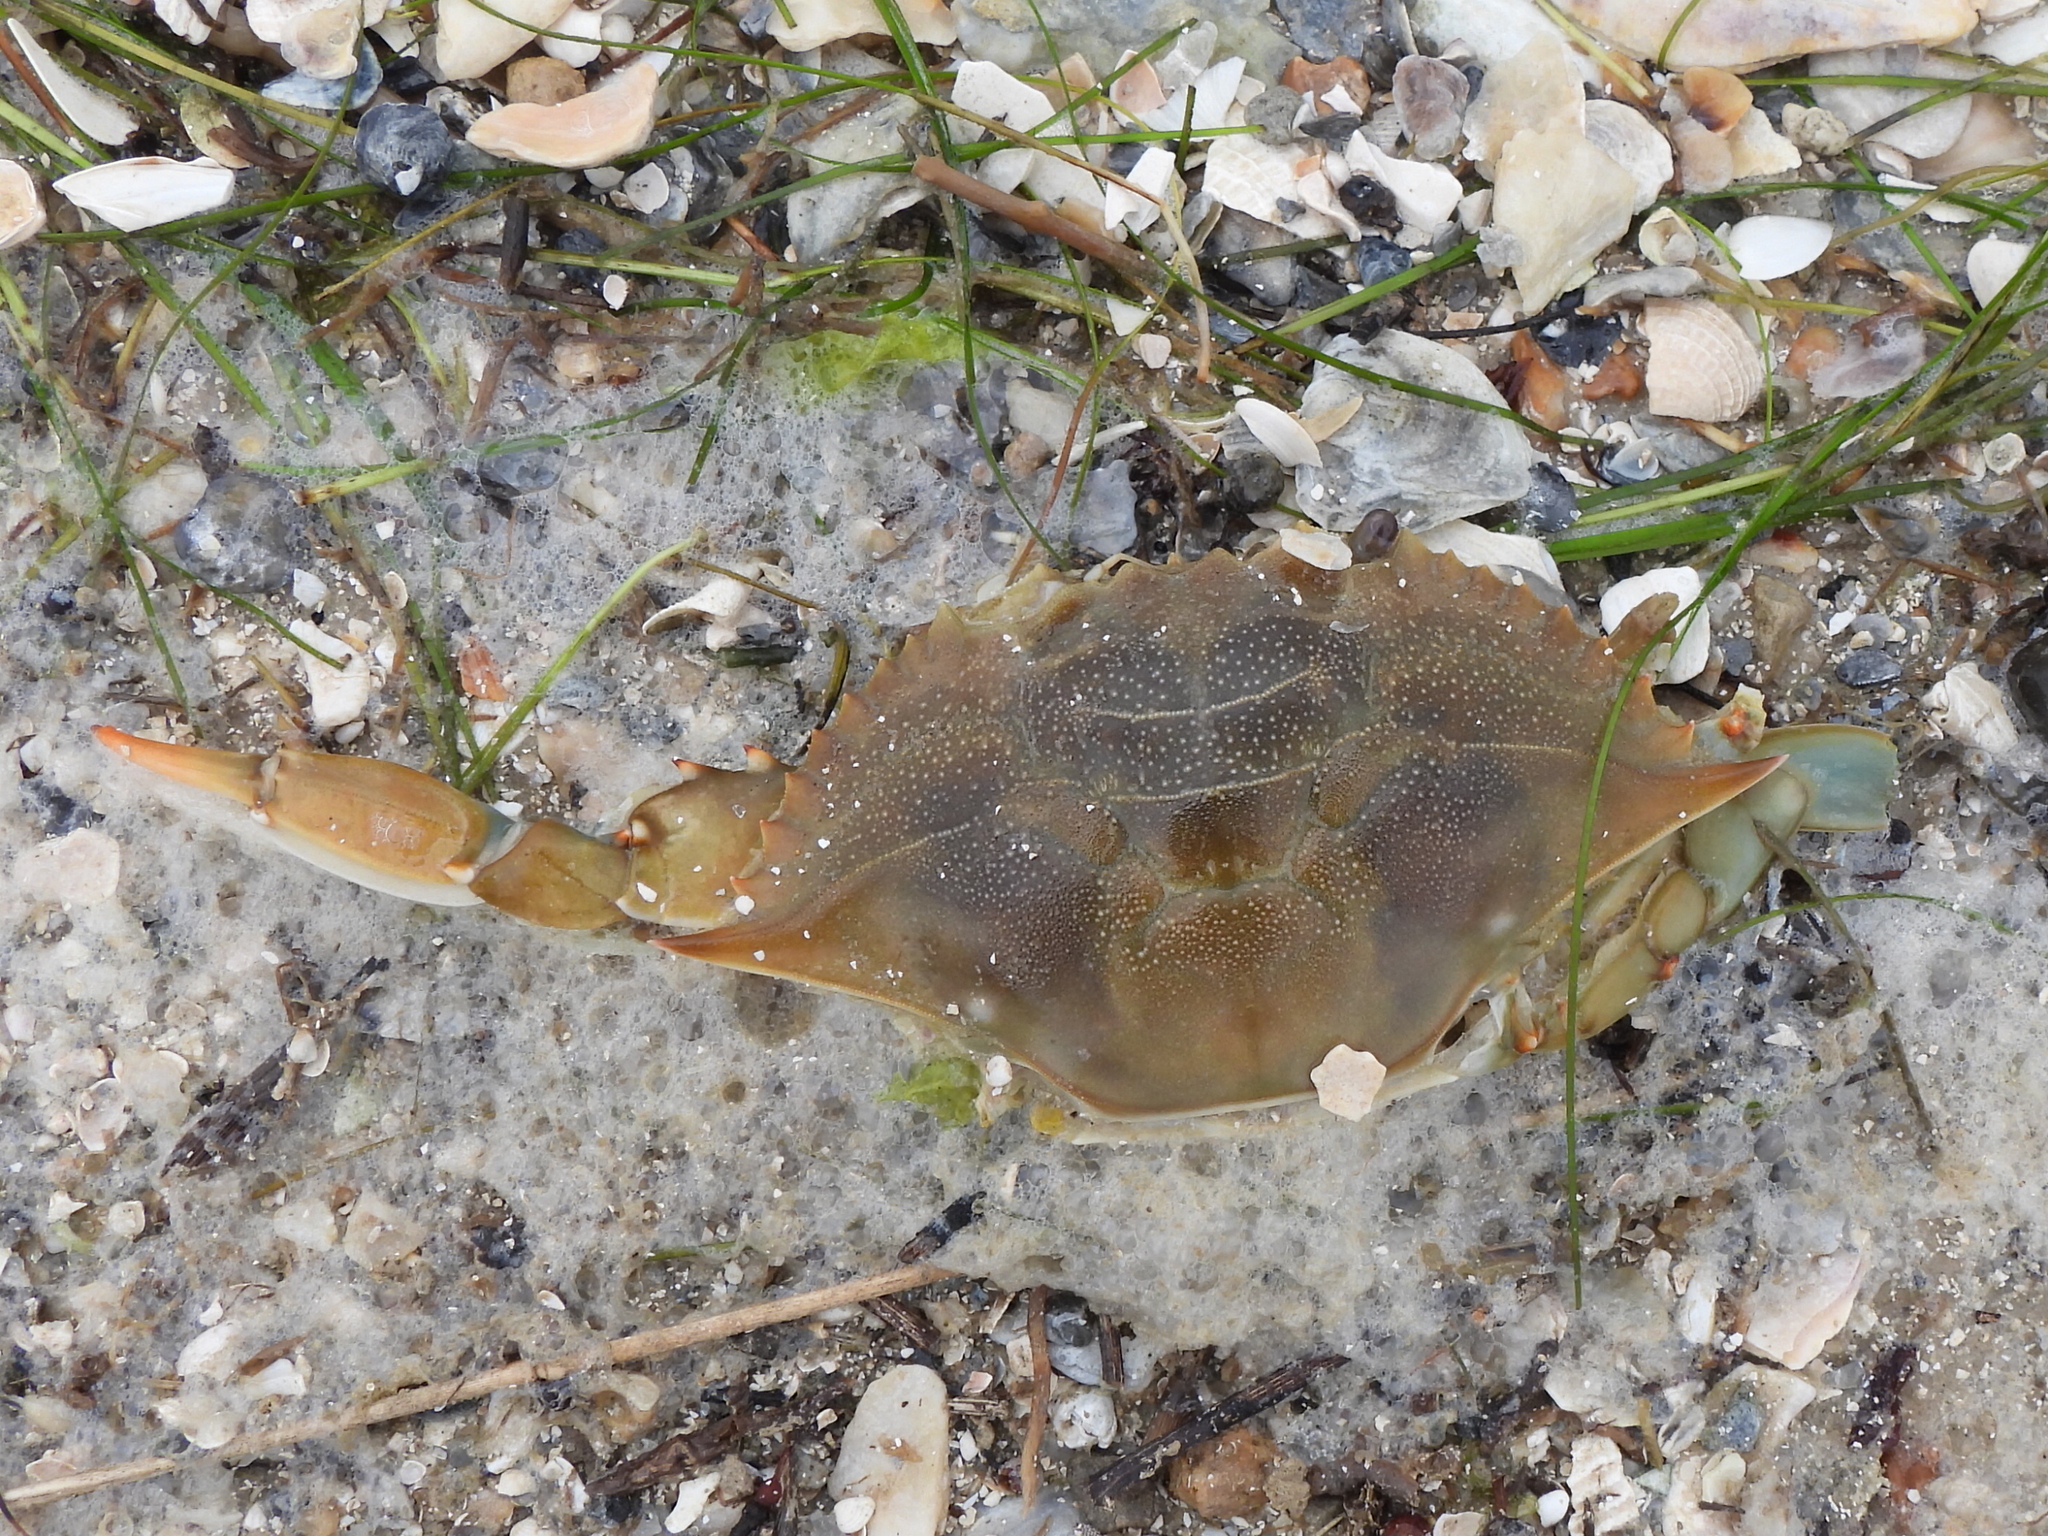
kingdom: Animalia
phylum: Arthropoda
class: Malacostraca
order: Decapoda
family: Portunidae
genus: Callinectes
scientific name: Callinectes sapidus
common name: Blue crab
